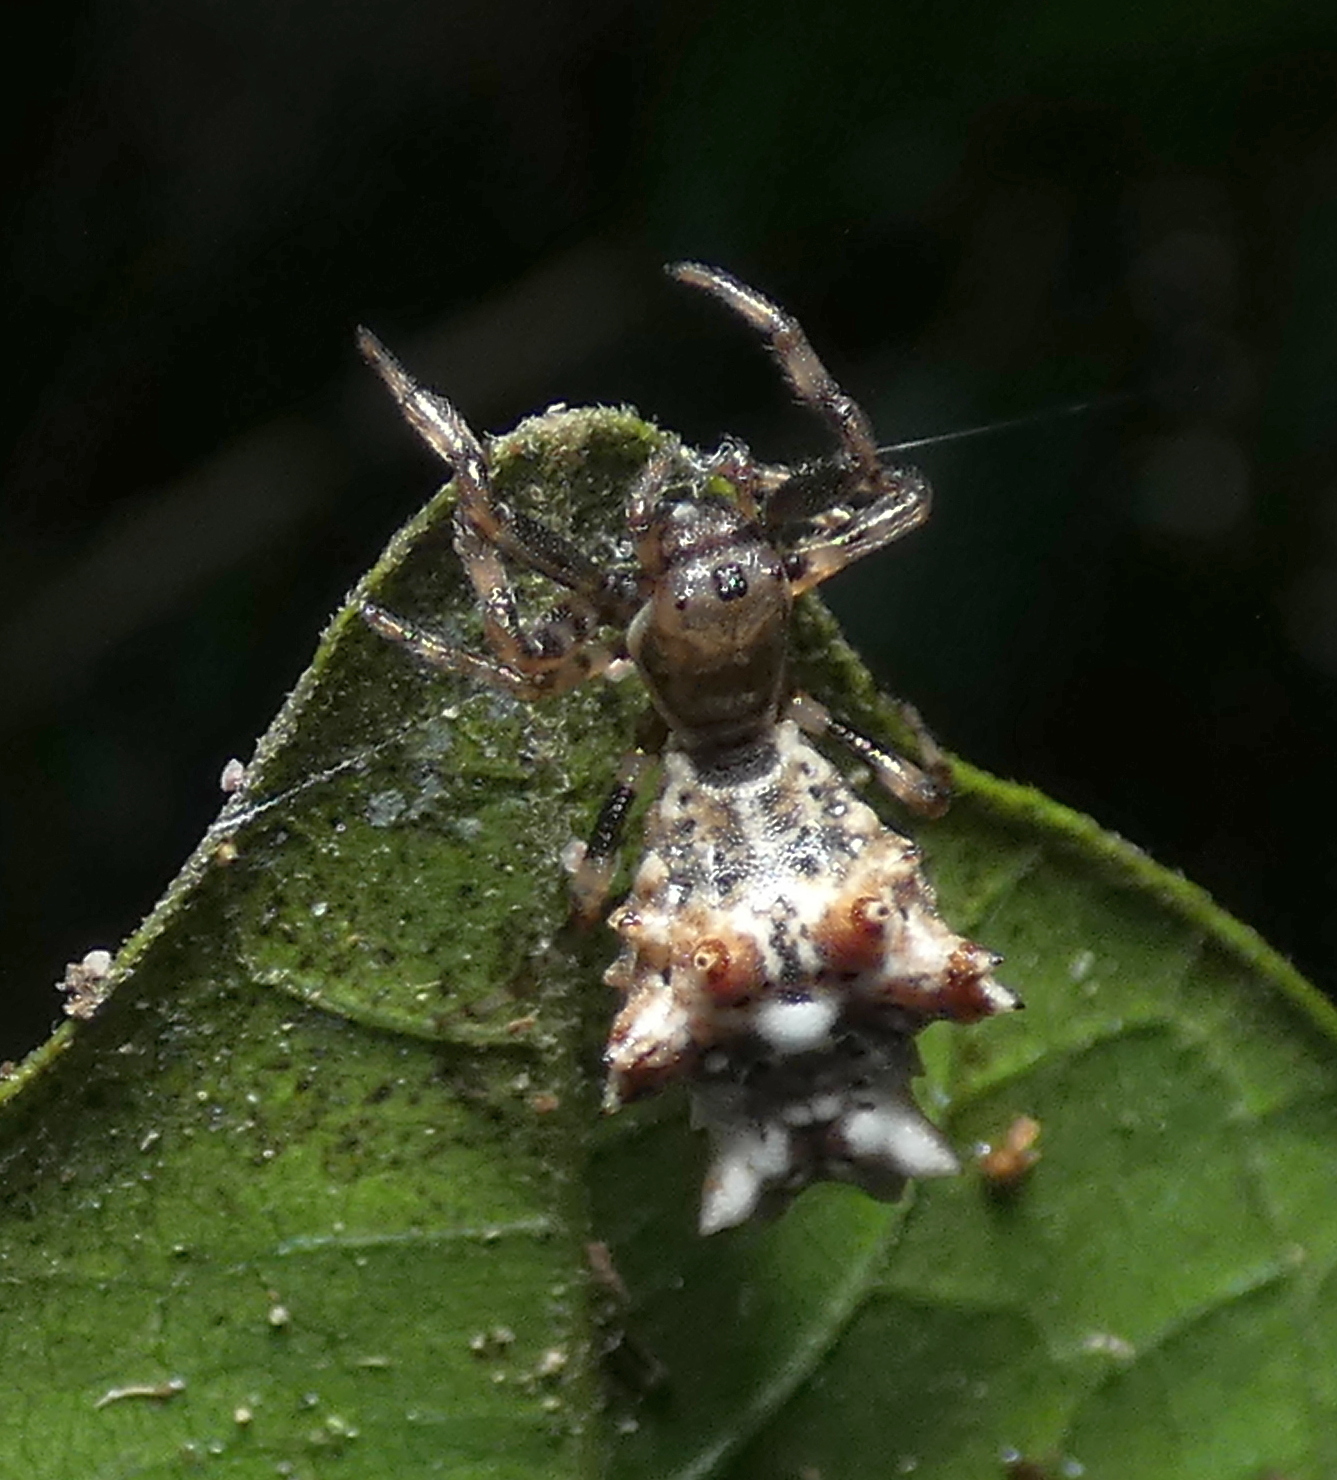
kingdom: Animalia
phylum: Arthropoda
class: Arachnida
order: Araneae
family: Araneidae
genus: Micrathena
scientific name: Micrathena horrida
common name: Orb weavers
